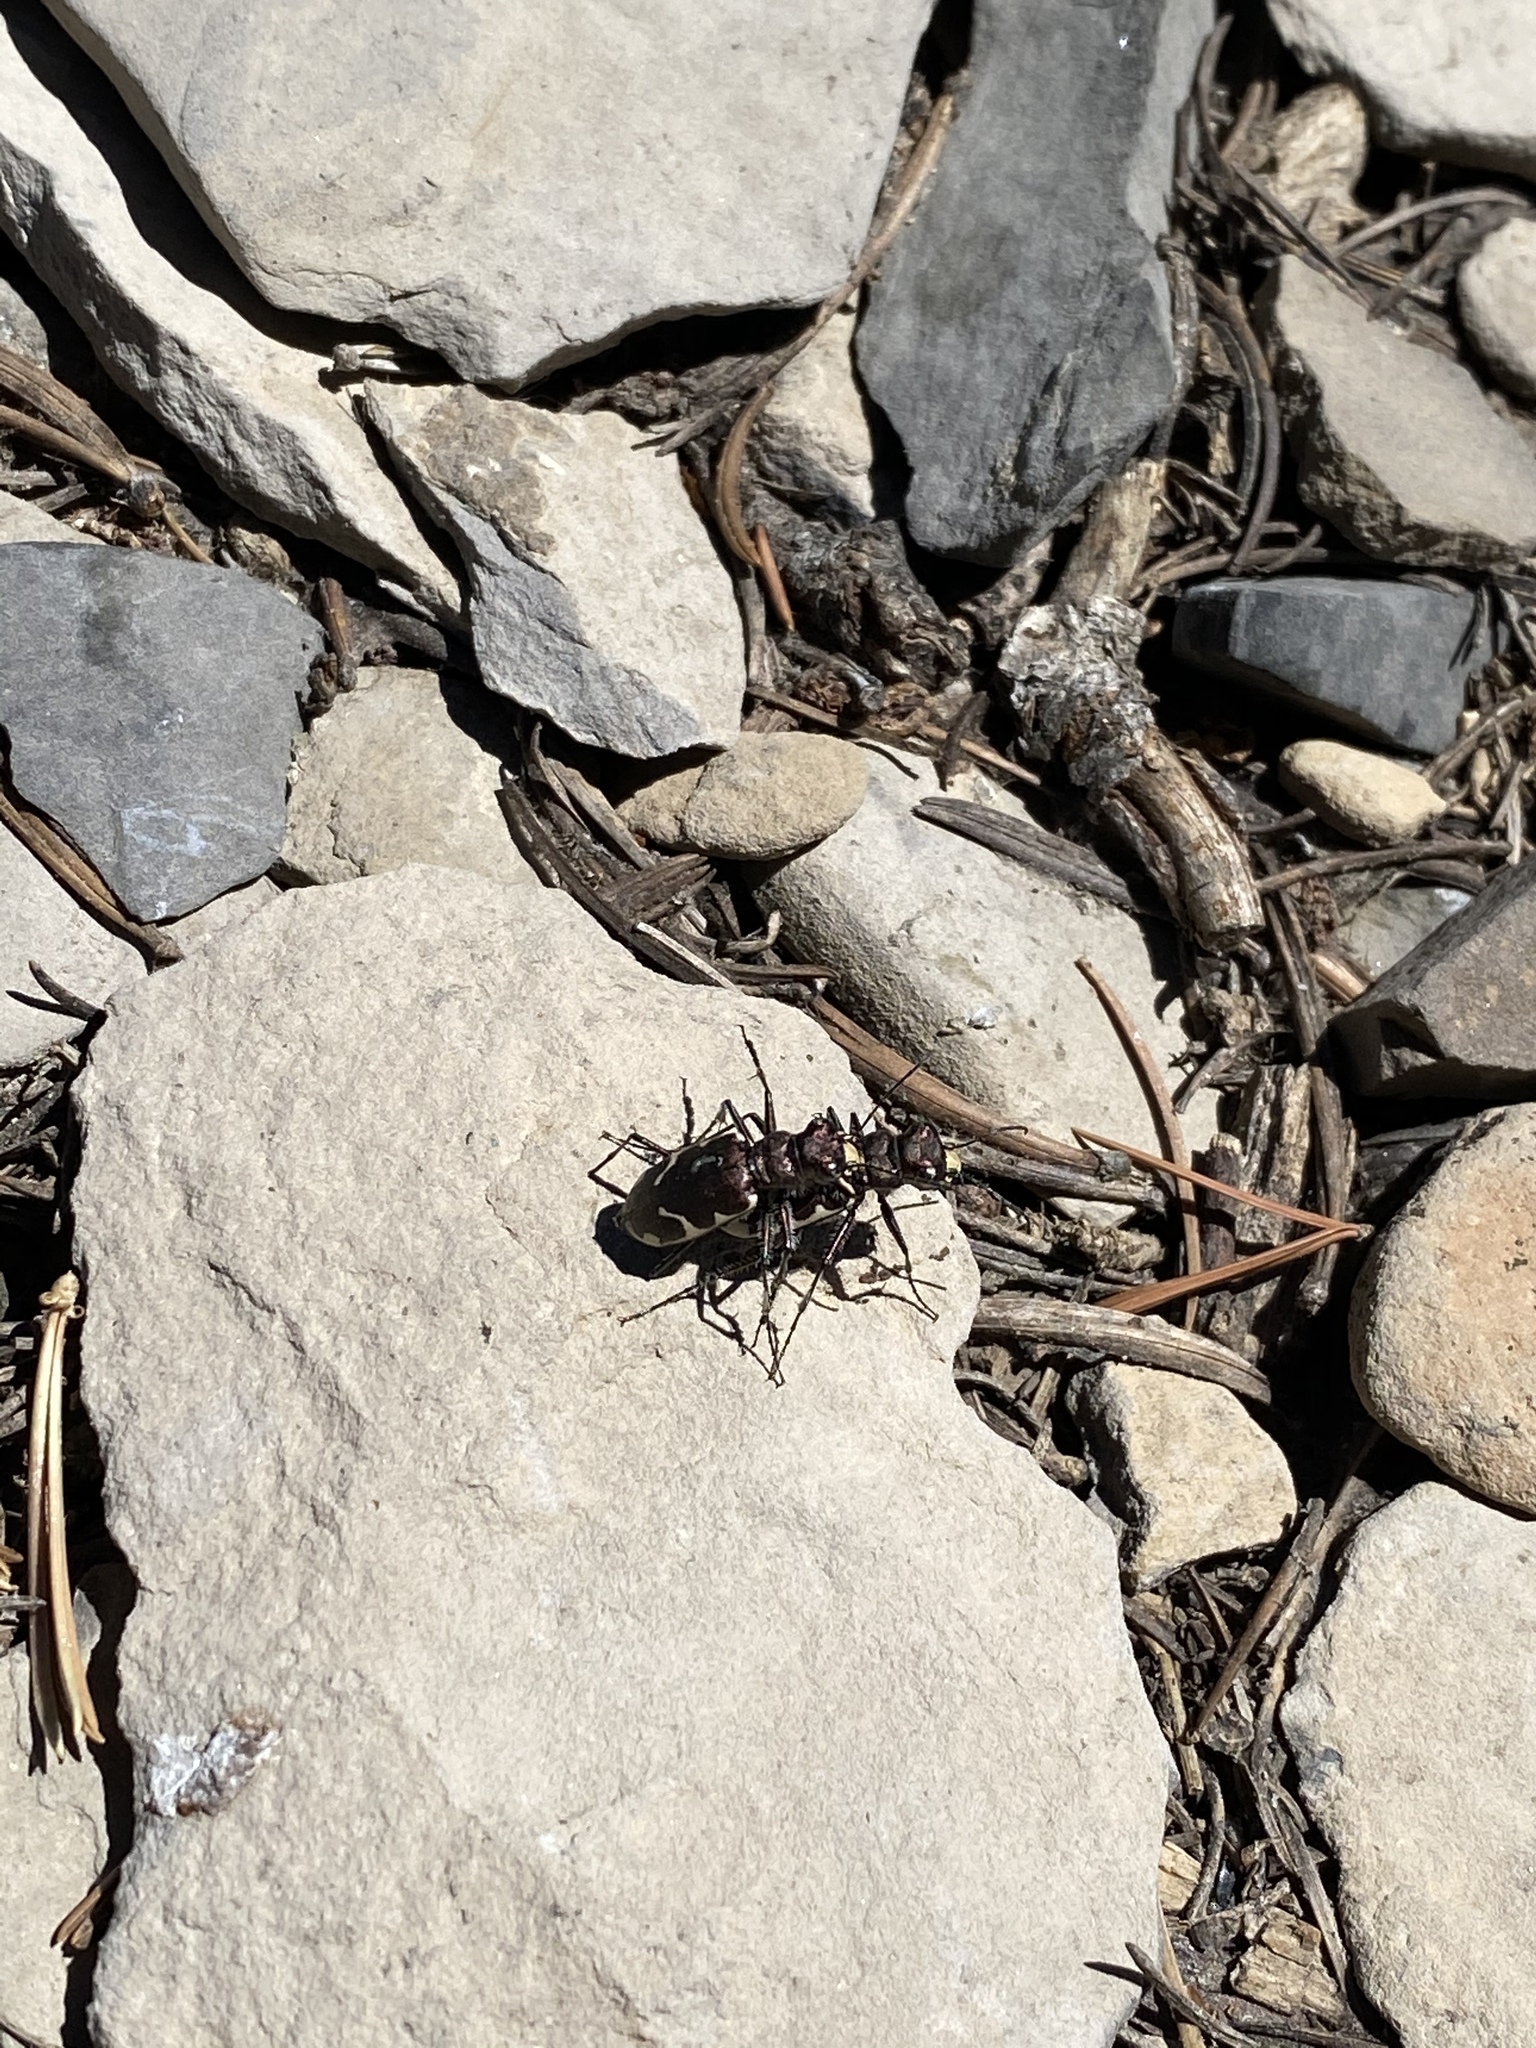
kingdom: Animalia
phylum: Arthropoda
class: Insecta
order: Coleoptera
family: Carabidae
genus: Cicindela
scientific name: Cicindela longilabris
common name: Boreal long-lipped tiger beetle
